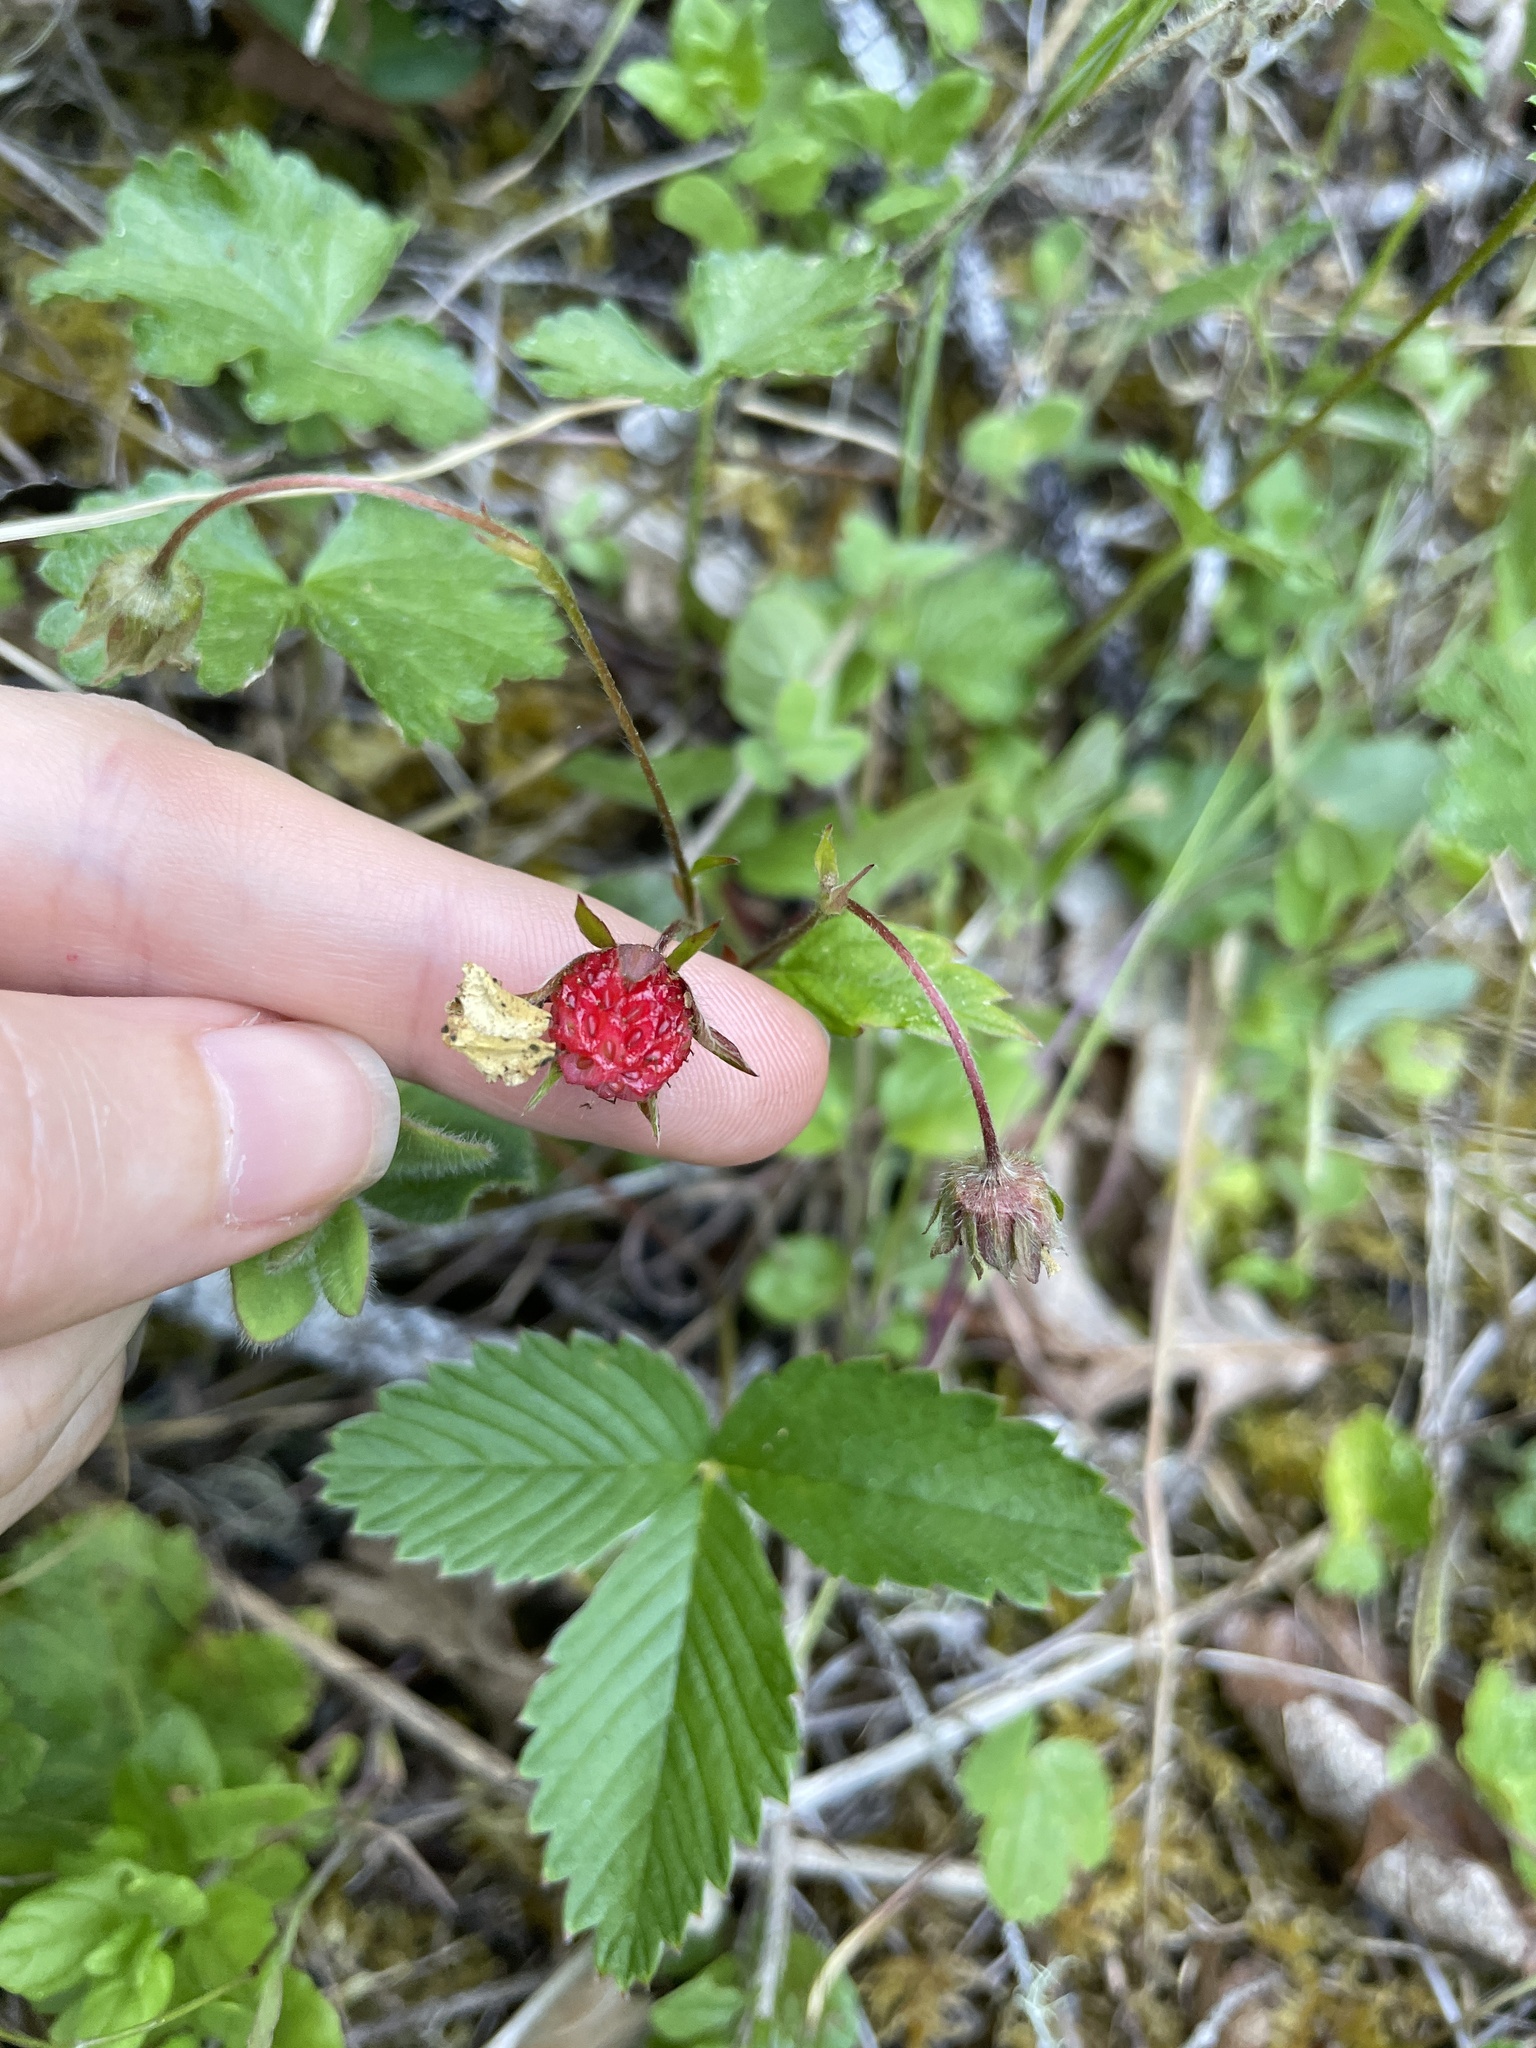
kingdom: Plantae
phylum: Tracheophyta
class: Magnoliopsida
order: Rosales
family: Rosaceae
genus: Fragaria
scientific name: Fragaria vesca
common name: Wild strawberry
